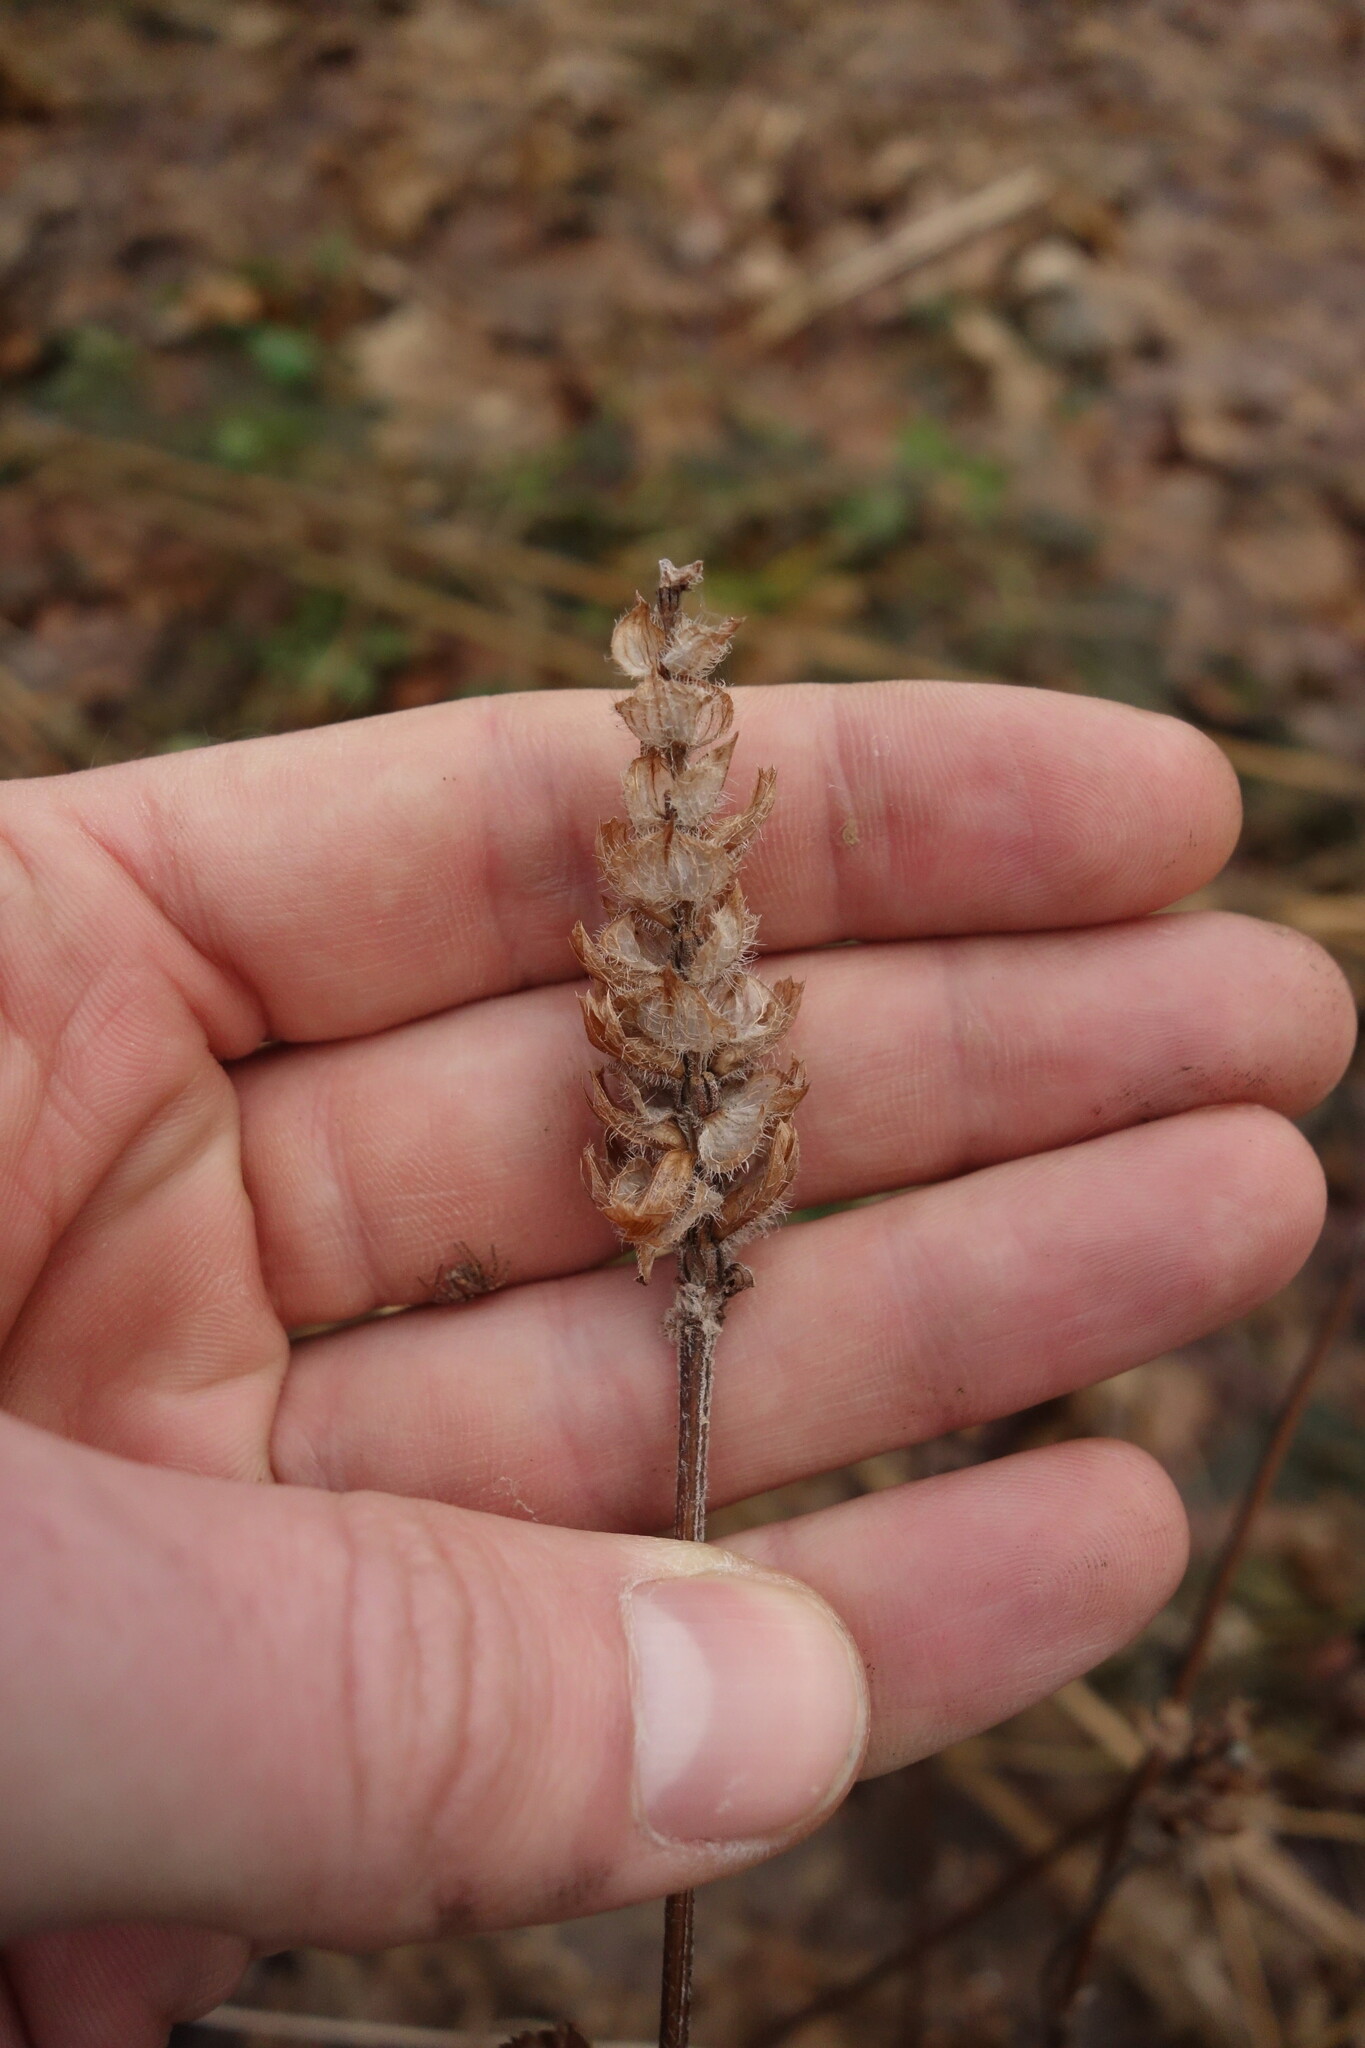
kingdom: Plantae
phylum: Tracheophyta
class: Magnoliopsida
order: Lamiales
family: Lamiaceae
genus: Prunella
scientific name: Prunella vulgaris
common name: Heal-all
